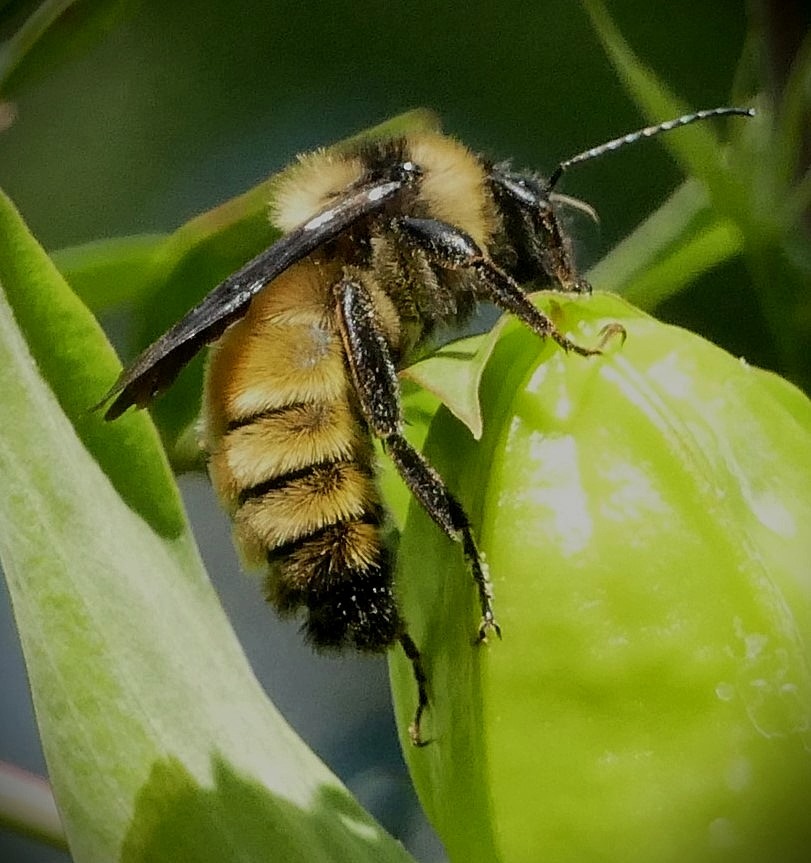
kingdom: Animalia
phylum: Arthropoda
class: Insecta
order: Hymenoptera
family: Apidae
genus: Bombus
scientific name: Bombus pensylvanicus
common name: Bumble bee
